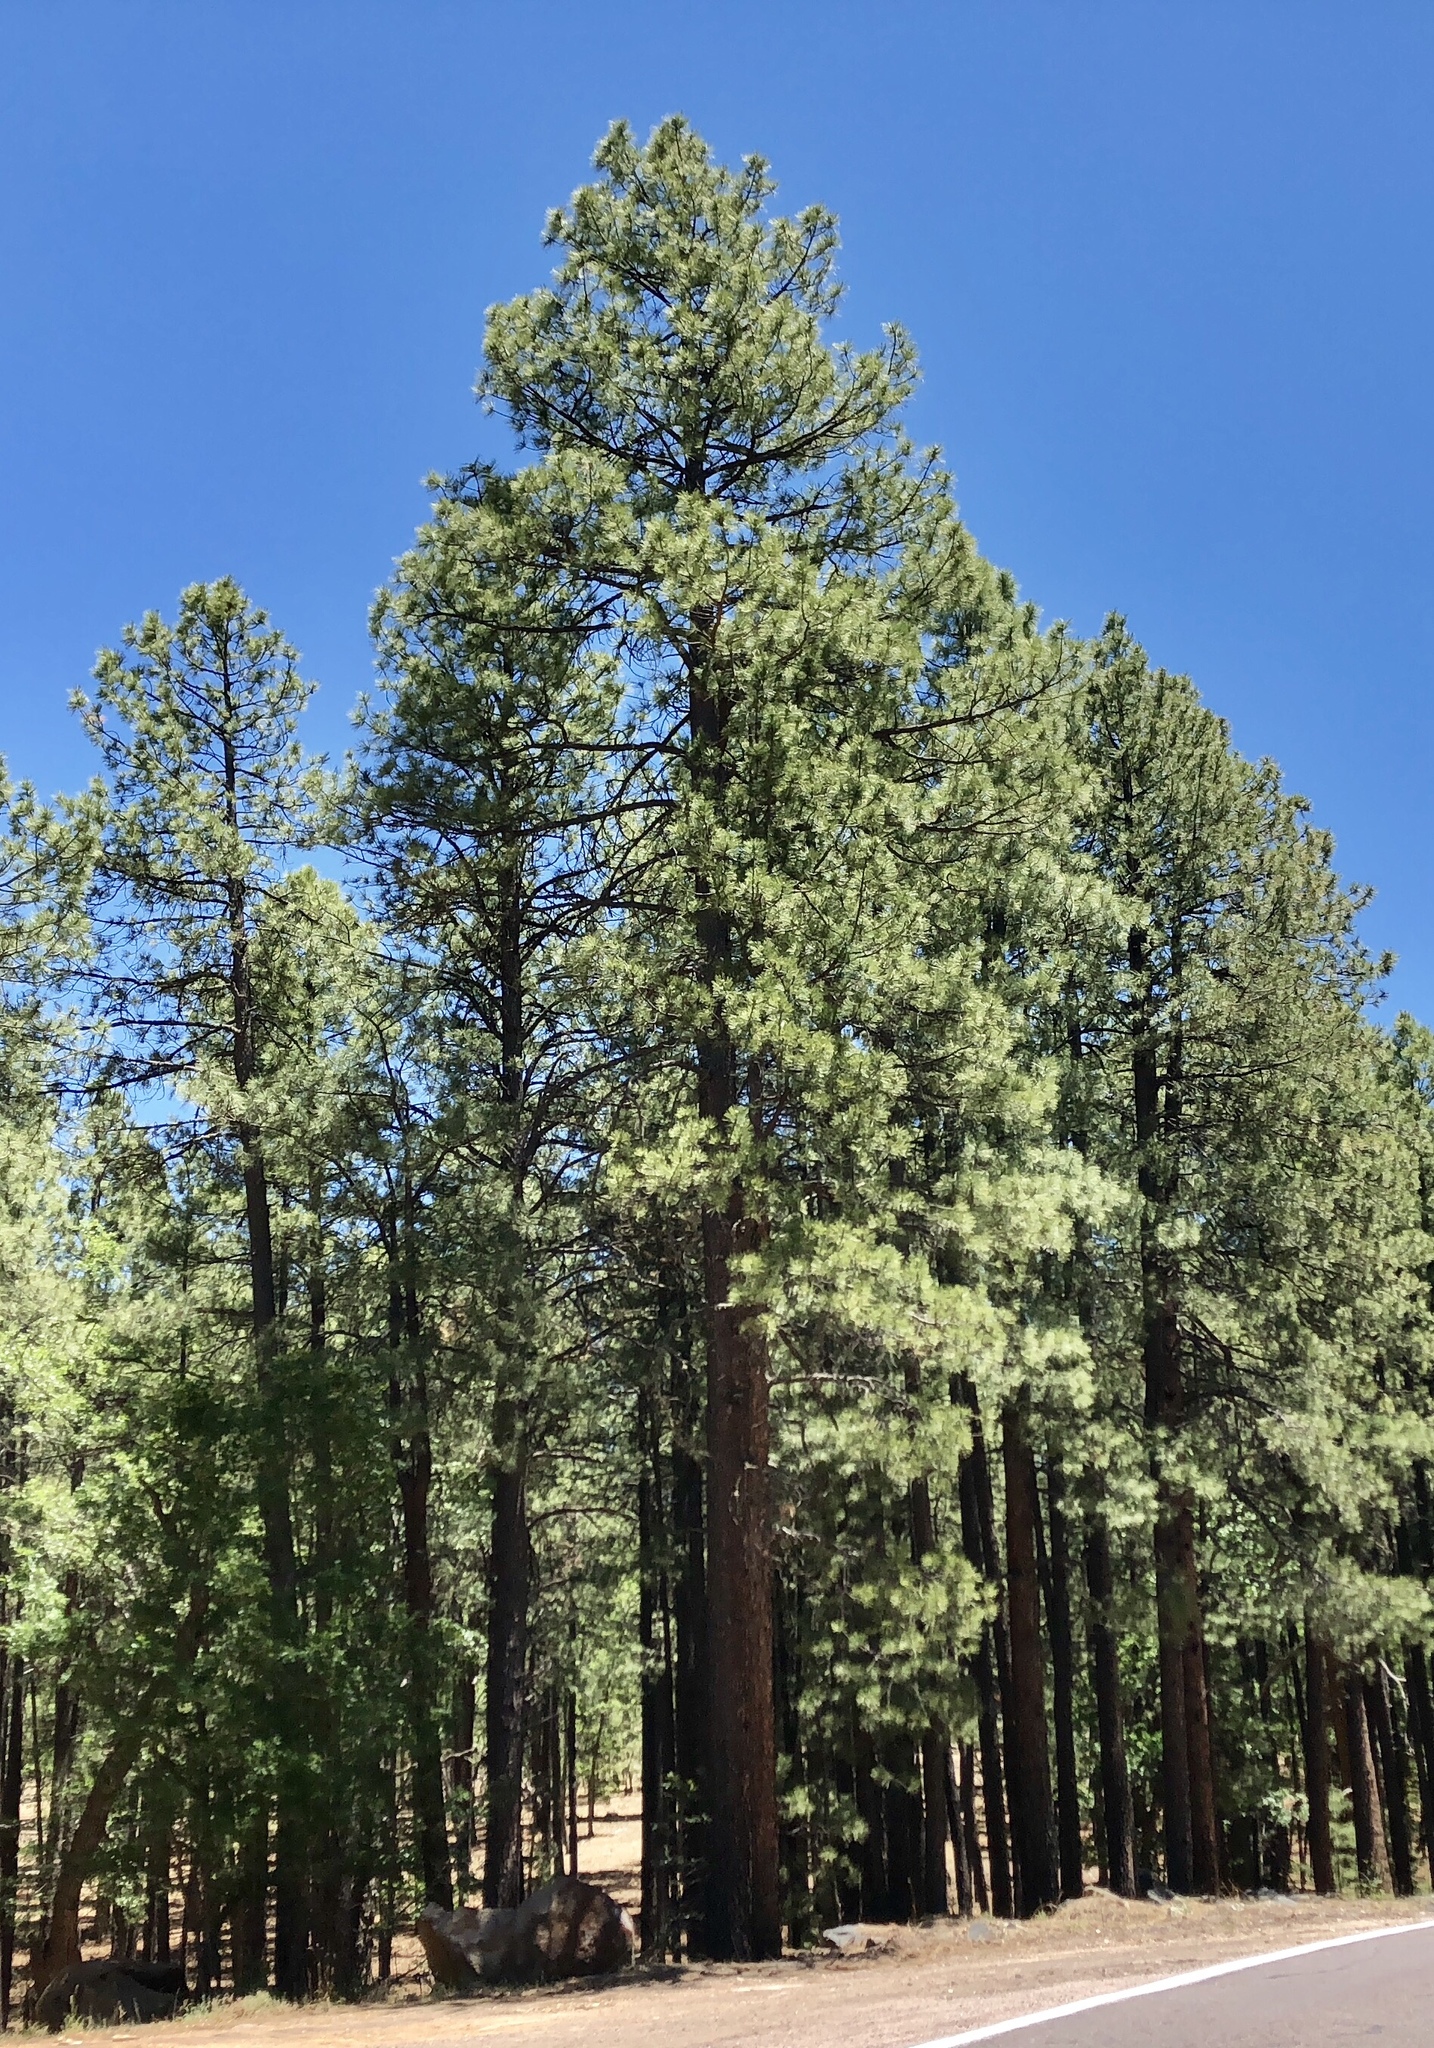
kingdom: Plantae
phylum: Tracheophyta
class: Pinopsida
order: Pinales
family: Pinaceae
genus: Pinus
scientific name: Pinus ponderosa
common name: Western yellow-pine
